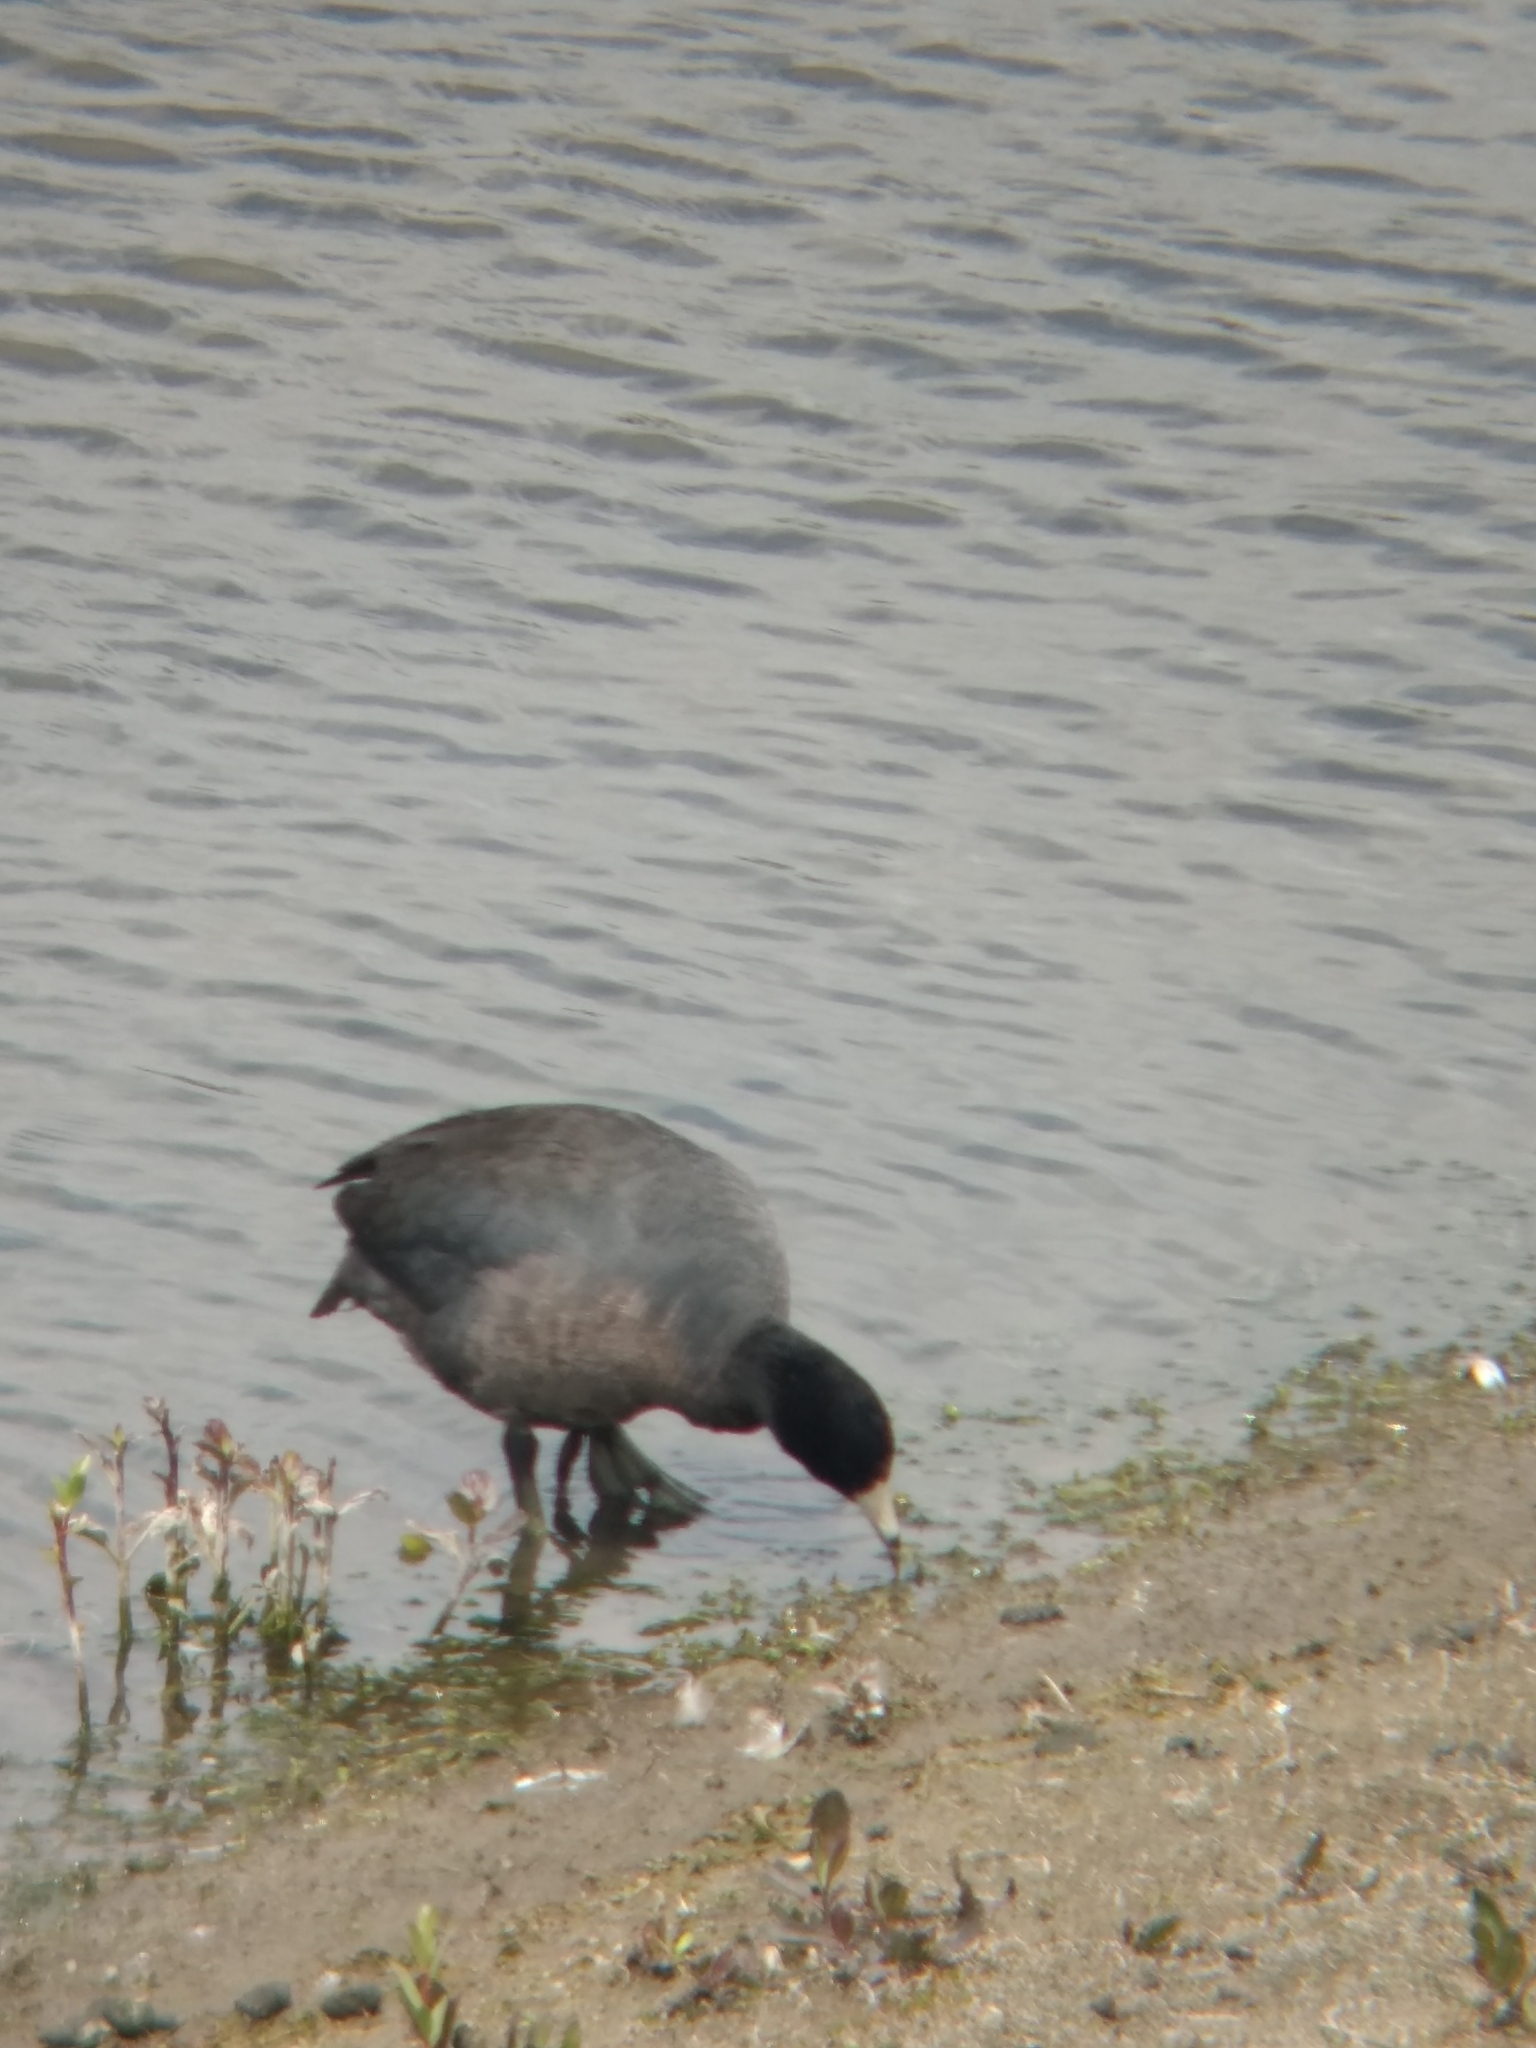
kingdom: Animalia
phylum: Chordata
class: Aves
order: Gruiformes
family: Rallidae
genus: Fulica
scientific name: Fulica americana
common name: American coot
